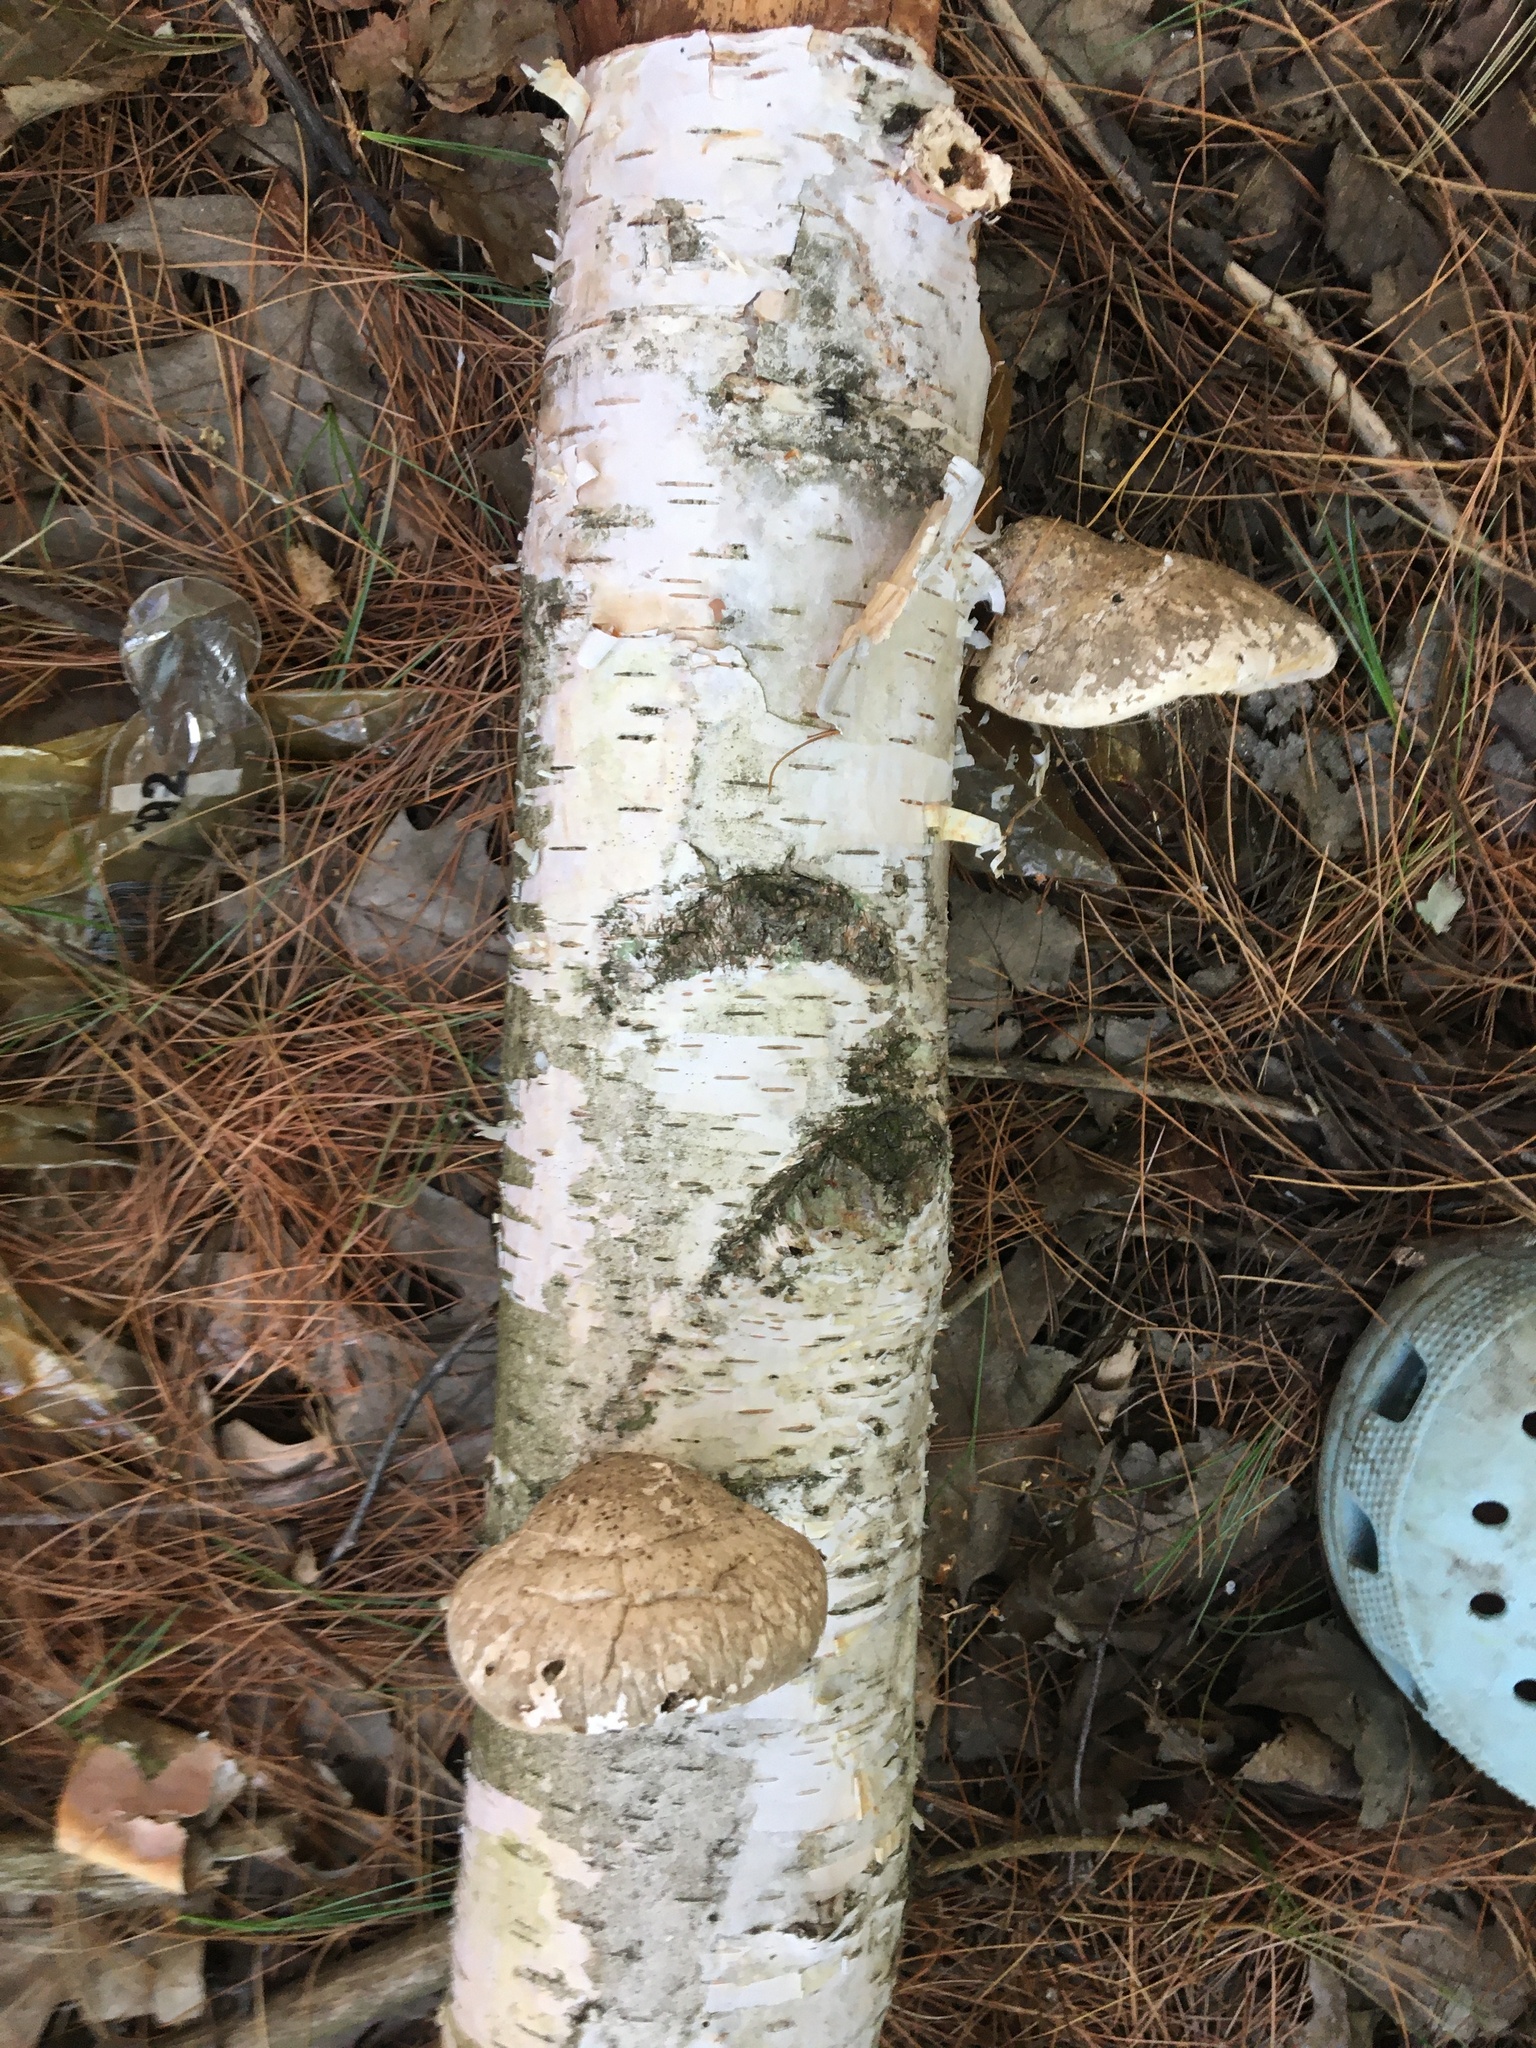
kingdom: Fungi
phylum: Basidiomycota
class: Agaricomycetes
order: Polyporales
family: Fomitopsidaceae
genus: Fomitopsis
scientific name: Fomitopsis betulina
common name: Birch polypore
